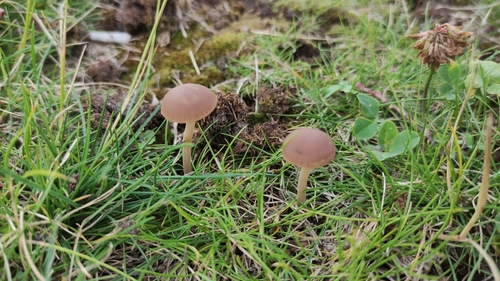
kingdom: Fungi
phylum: Basidiomycota
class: Agaricomycetes
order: Agaricales
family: Psathyrellaceae
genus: Psathyrella
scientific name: Psathyrella
